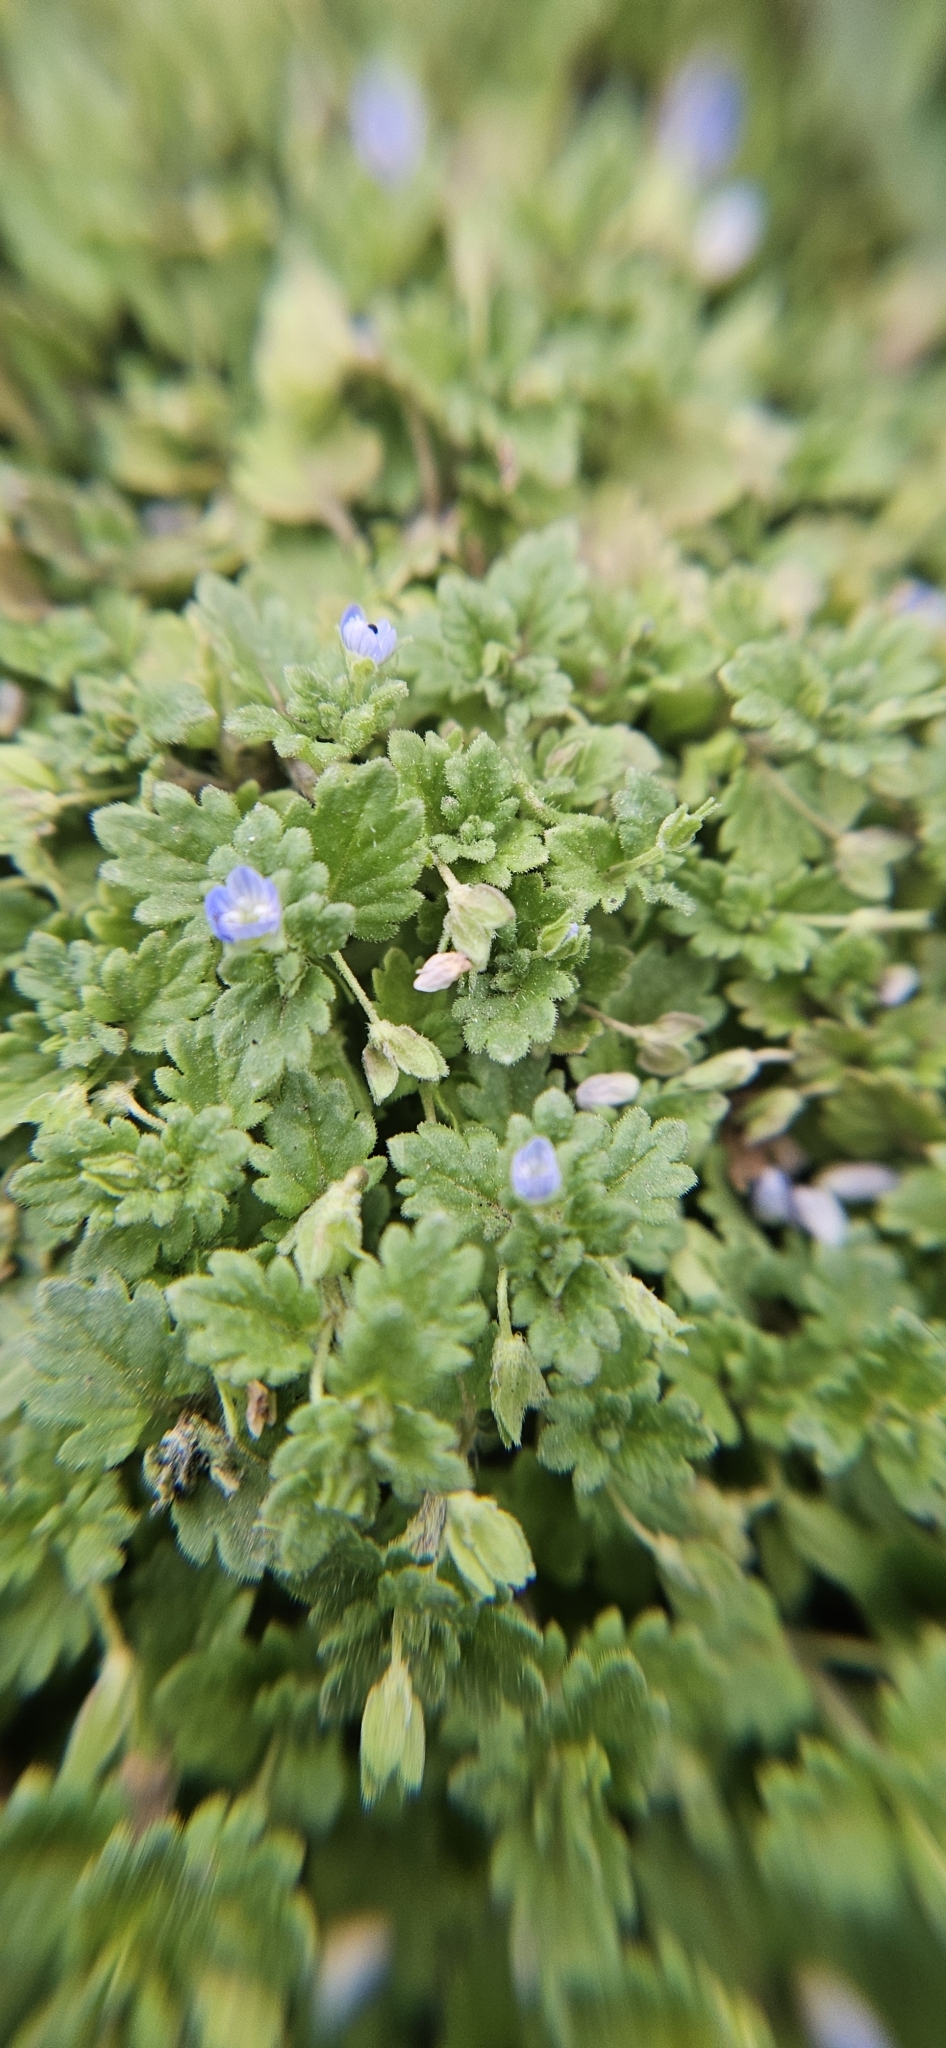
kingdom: Plantae
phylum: Tracheophyta
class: Magnoliopsida
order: Lamiales
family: Plantaginaceae
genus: Veronica
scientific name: Veronica polita
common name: Grey field-speedwell
